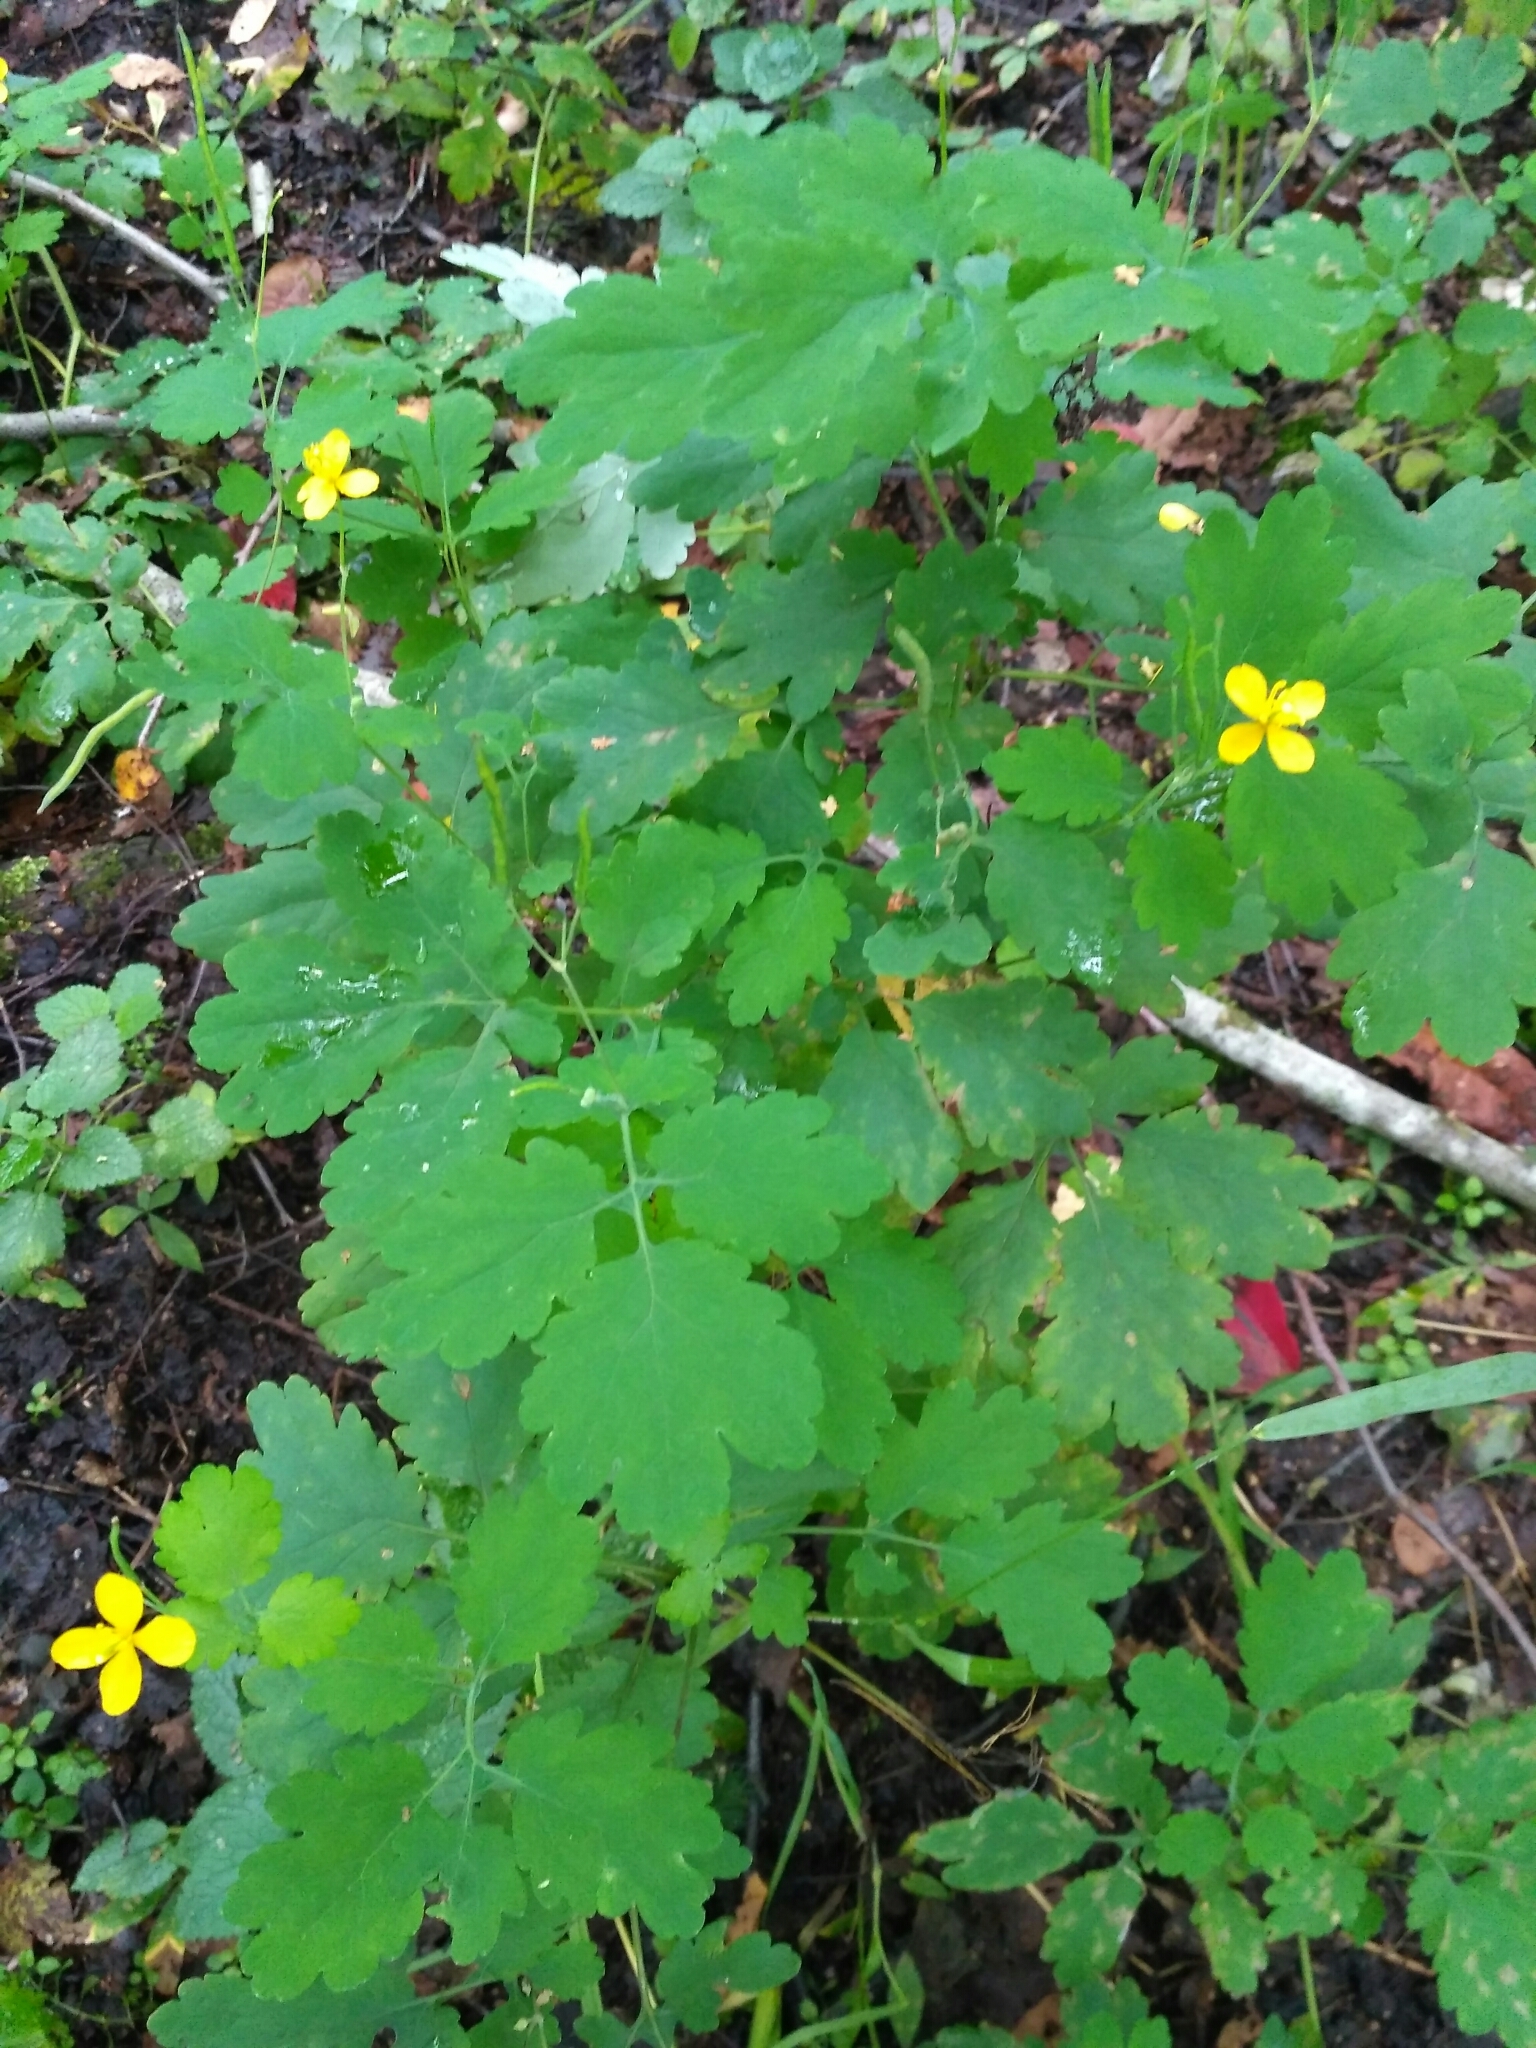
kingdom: Plantae
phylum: Tracheophyta
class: Magnoliopsida
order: Ranunculales
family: Papaveraceae
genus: Chelidonium
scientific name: Chelidonium majus
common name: Greater celandine
